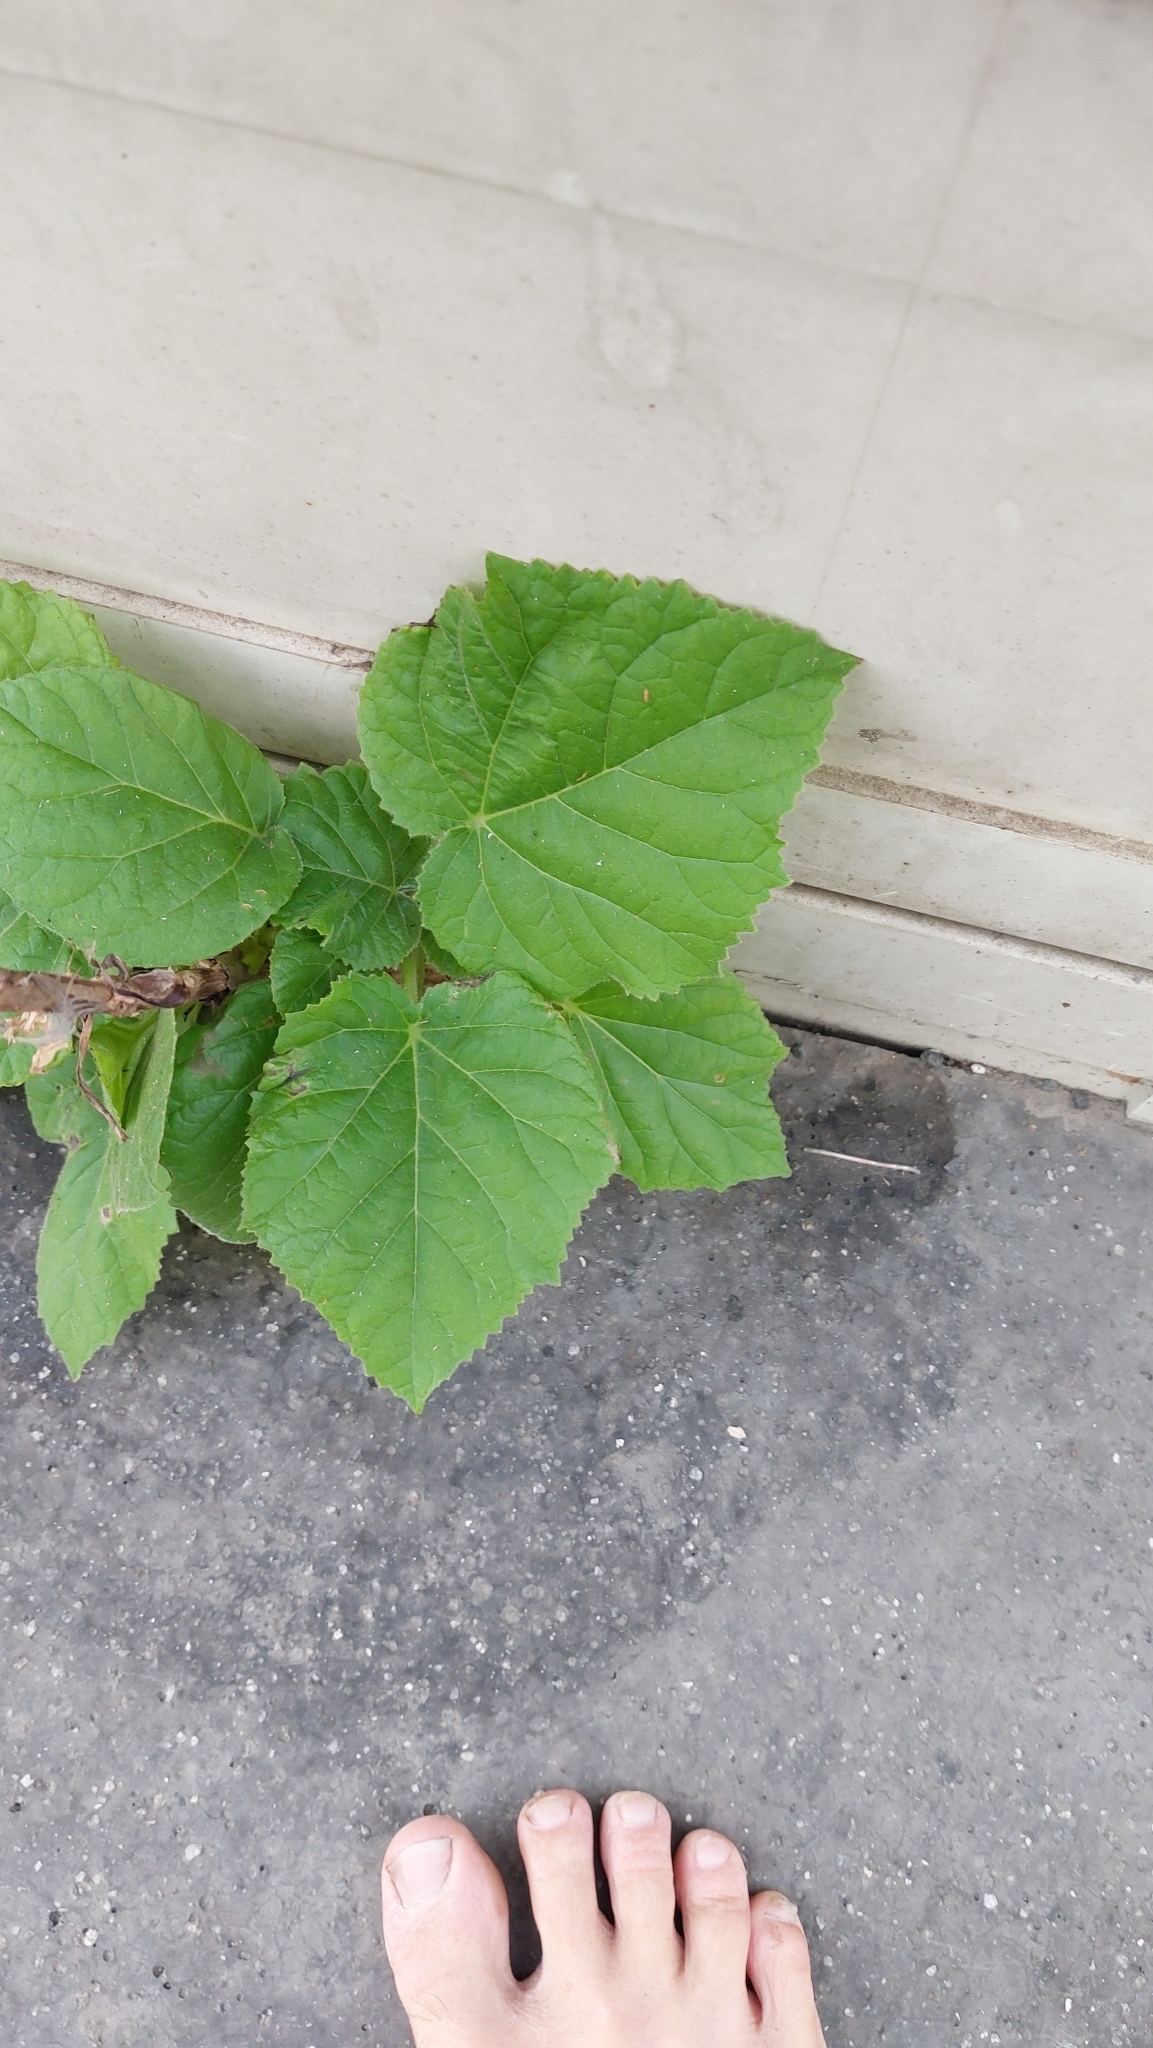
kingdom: Plantae
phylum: Tracheophyta
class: Magnoliopsida
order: Lamiales
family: Paulowniaceae
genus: Paulownia
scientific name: Paulownia tomentosa
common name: Foxglove-tree
